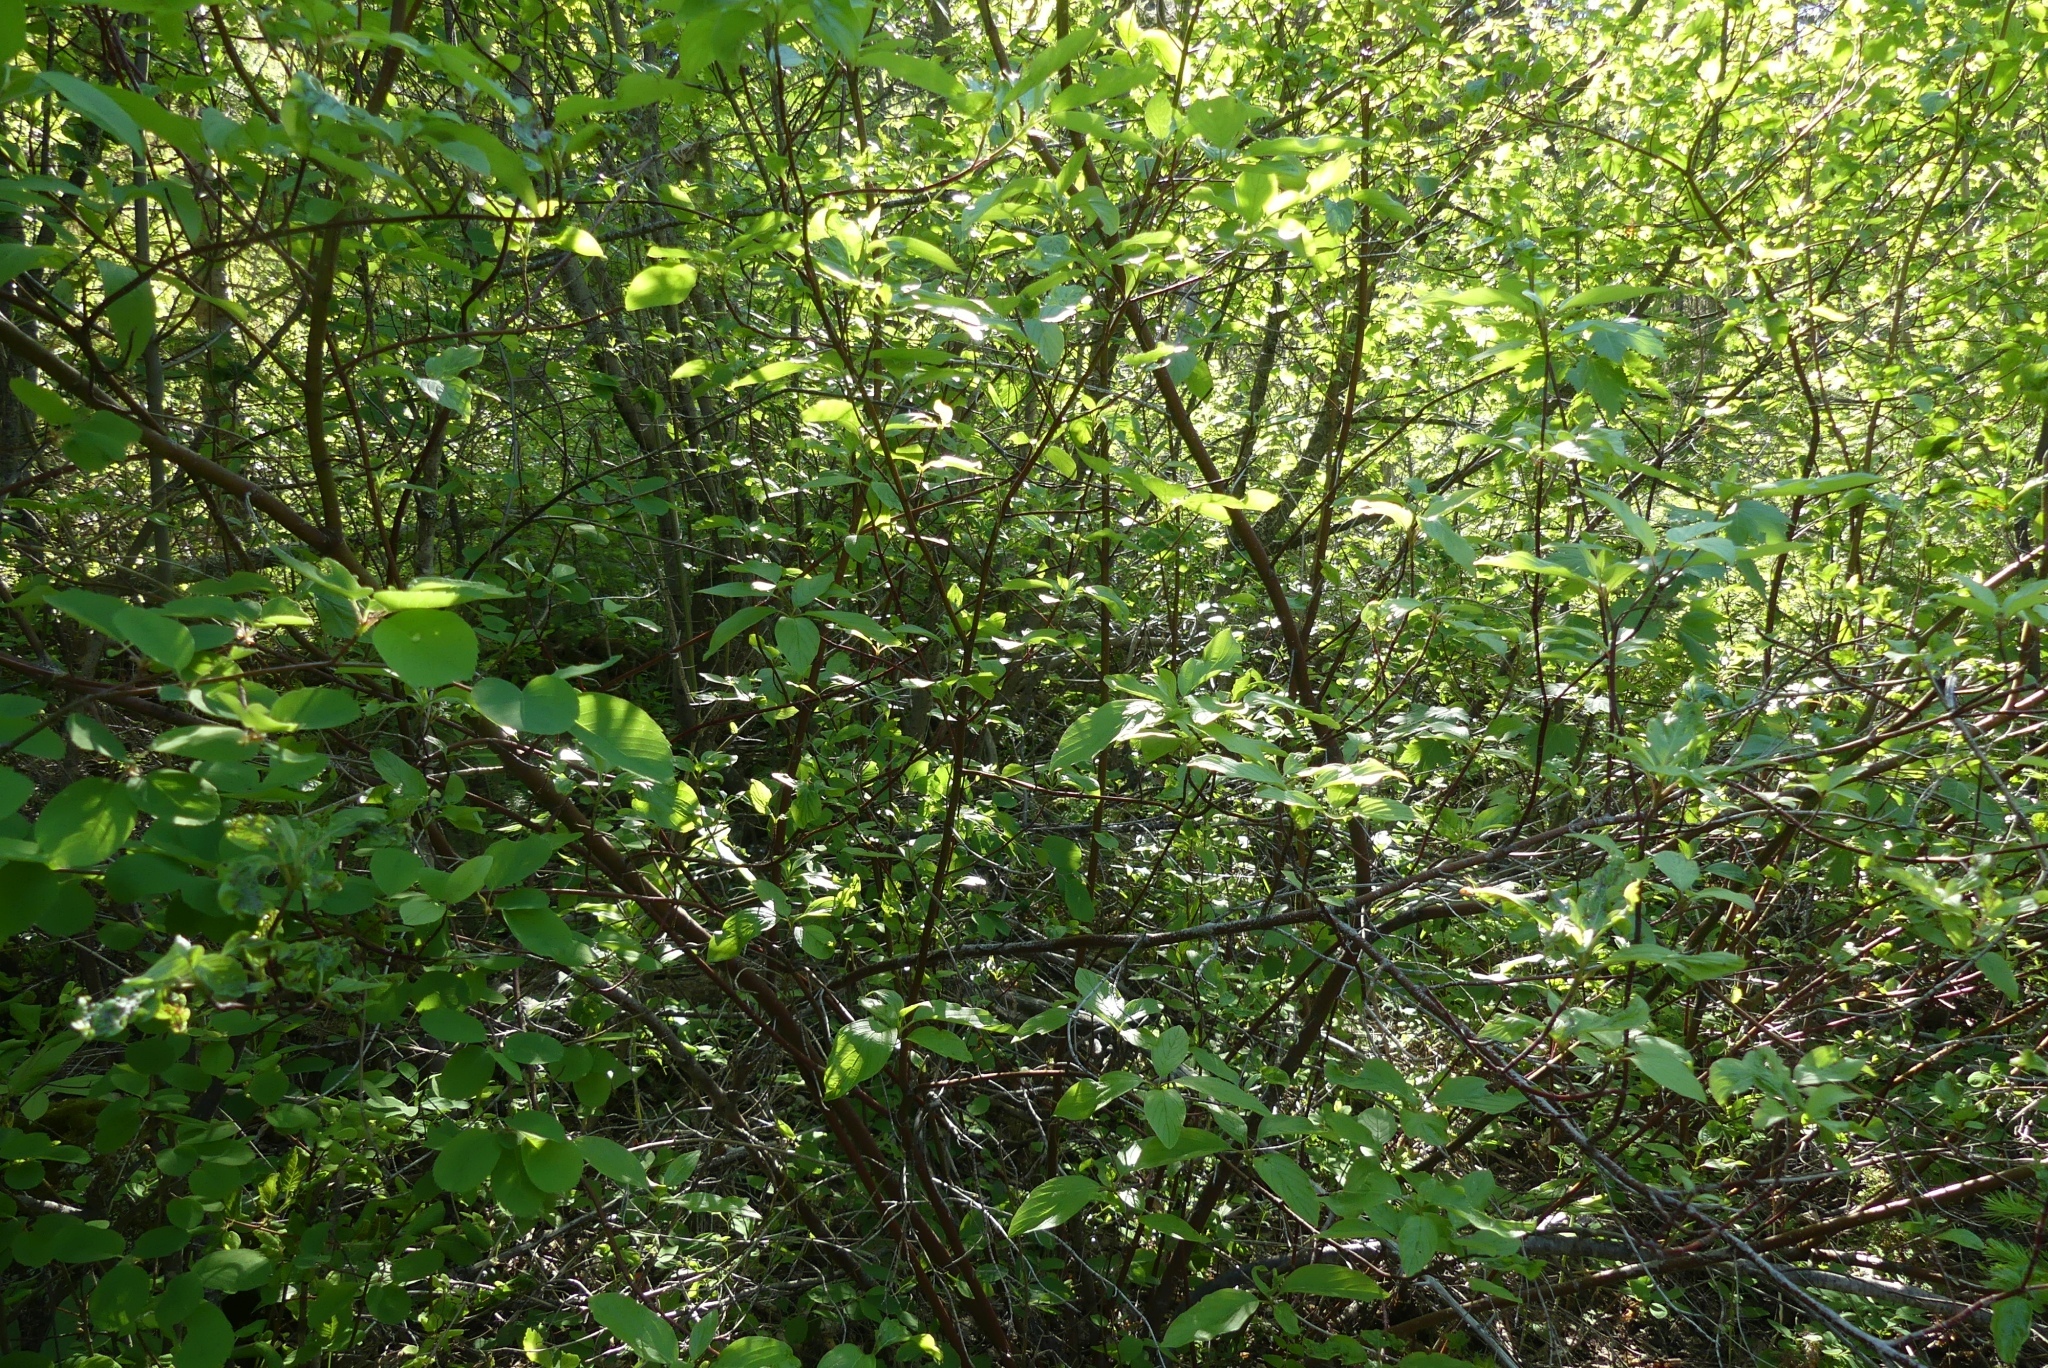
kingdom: Plantae
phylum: Tracheophyta
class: Magnoliopsida
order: Cornales
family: Cornaceae
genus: Cornus
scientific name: Cornus sericea
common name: Red-osier dogwood
